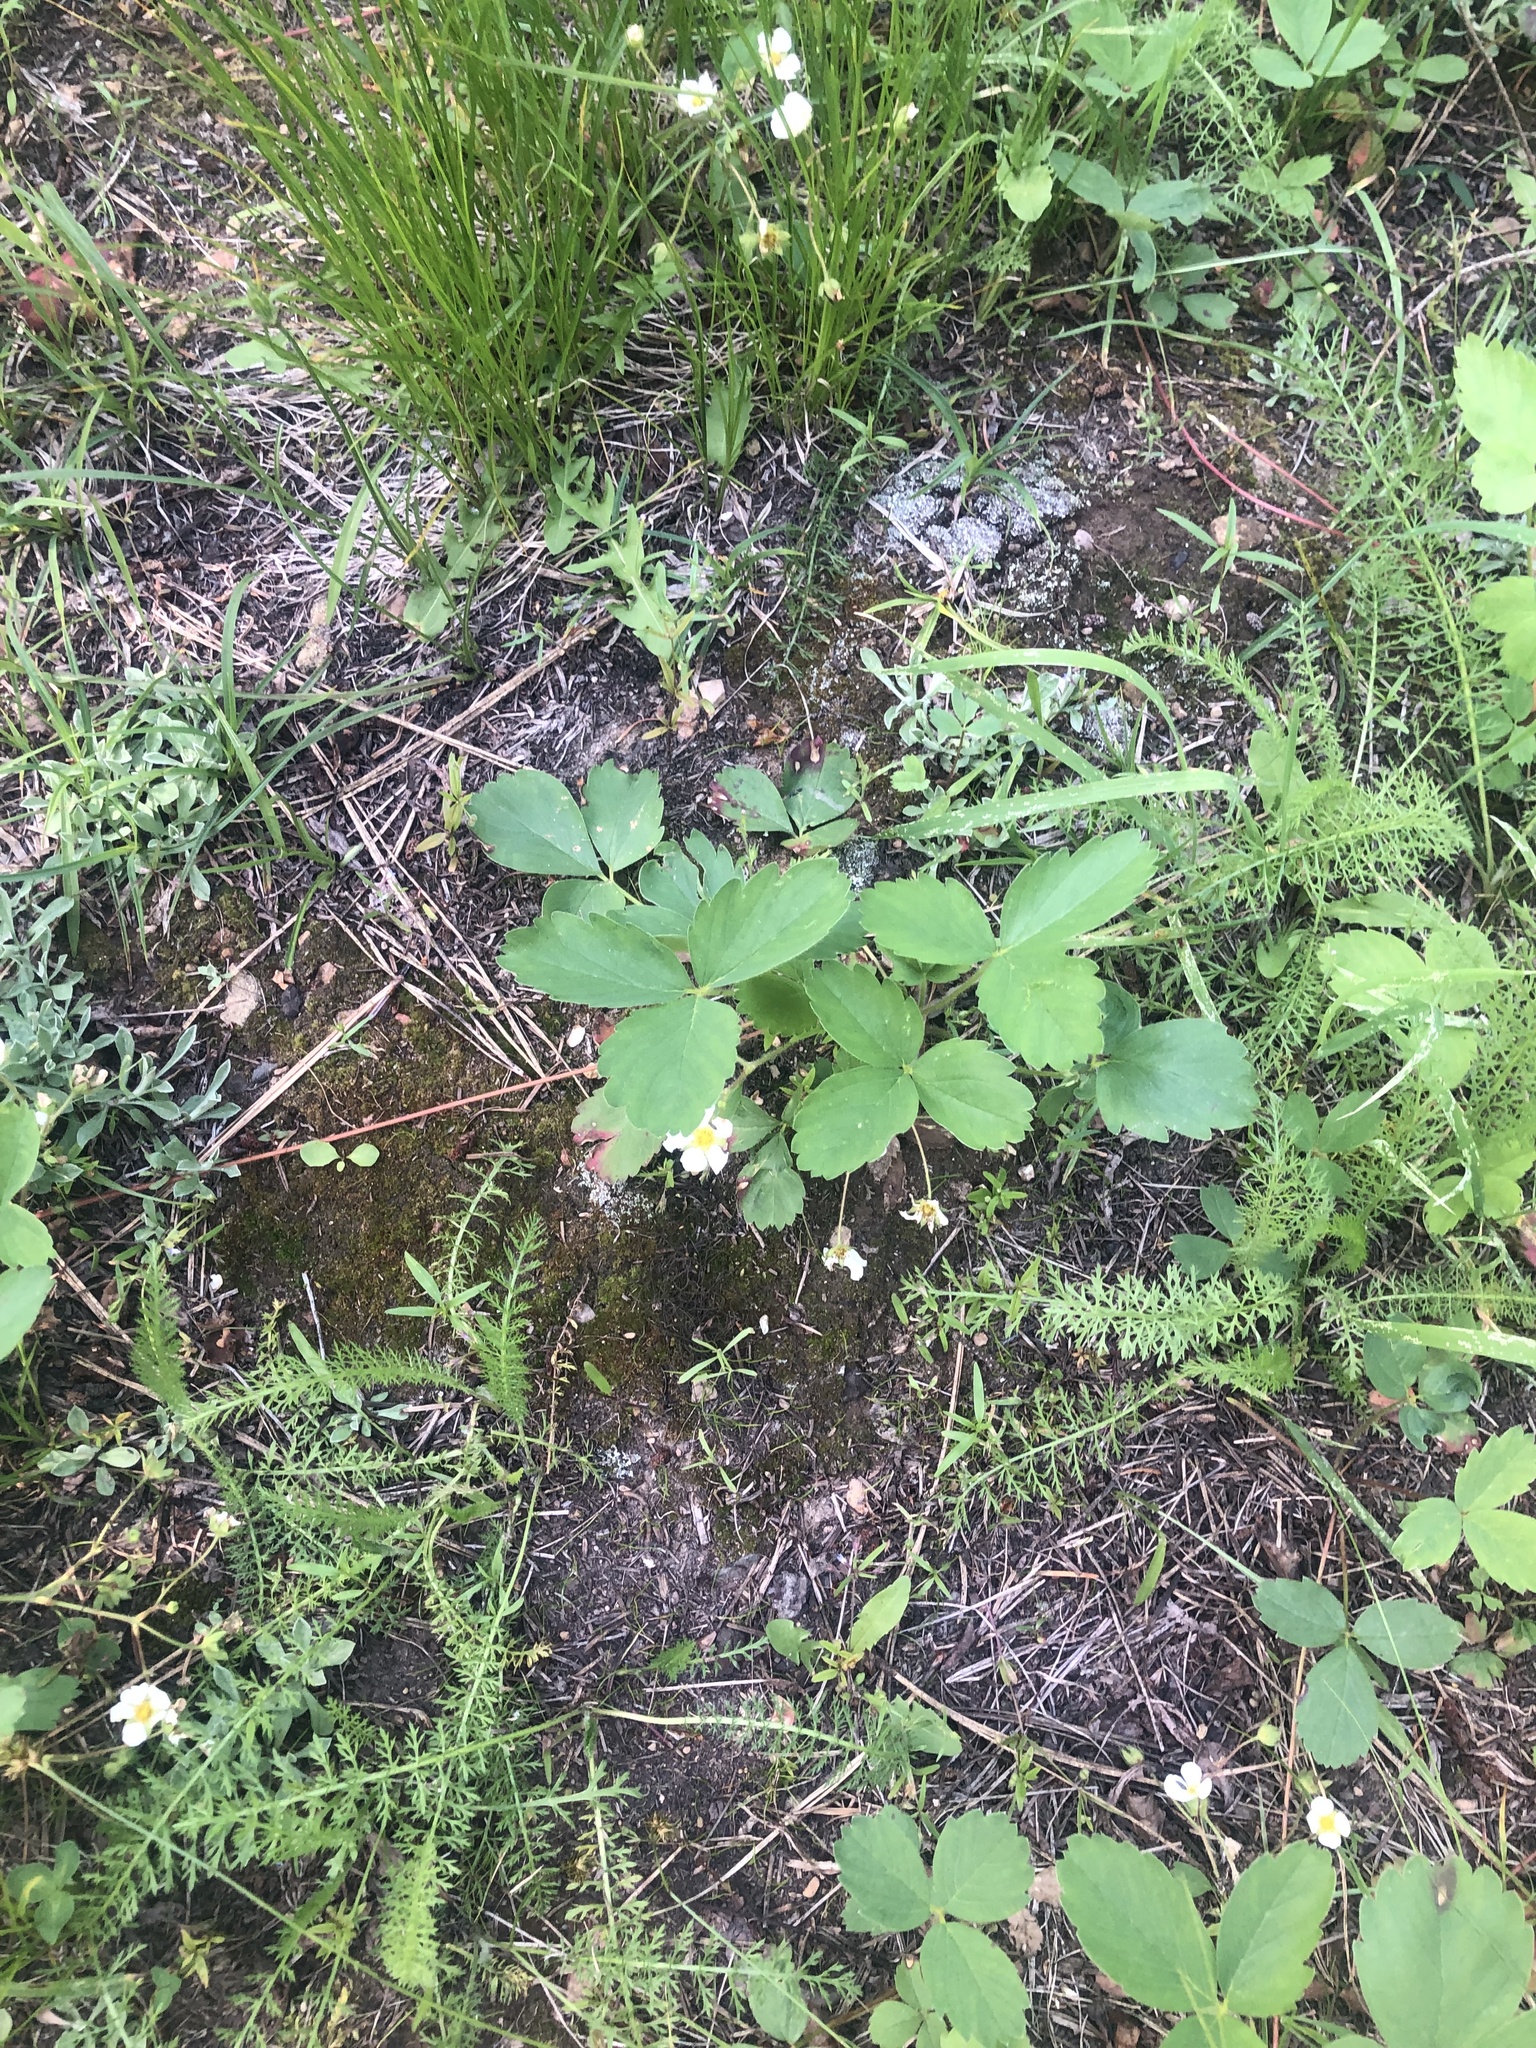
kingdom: Plantae
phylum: Tracheophyta
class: Magnoliopsida
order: Rosales
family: Rosaceae
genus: Fragaria
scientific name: Fragaria virginiana
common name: Thickleaved wild strawberry
